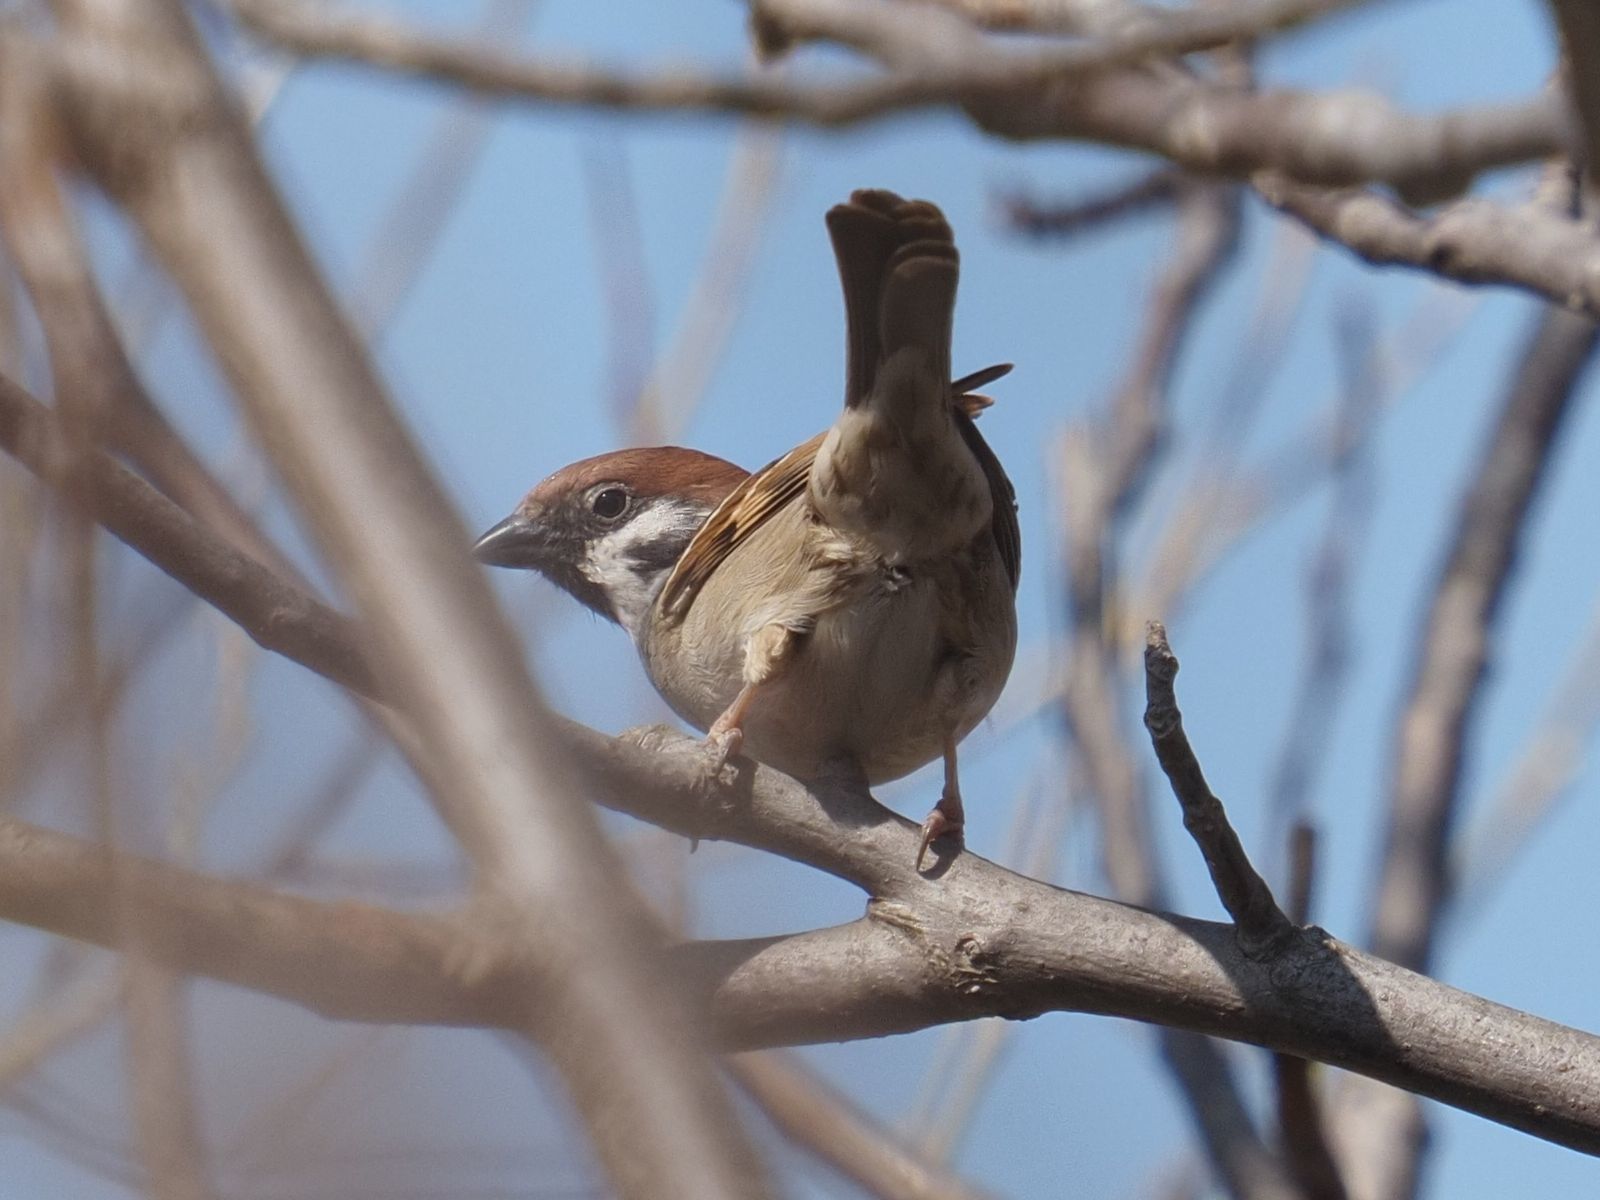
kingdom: Animalia
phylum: Chordata
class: Aves
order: Passeriformes
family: Passeridae
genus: Passer
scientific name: Passer montanus
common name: Eurasian tree sparrow
